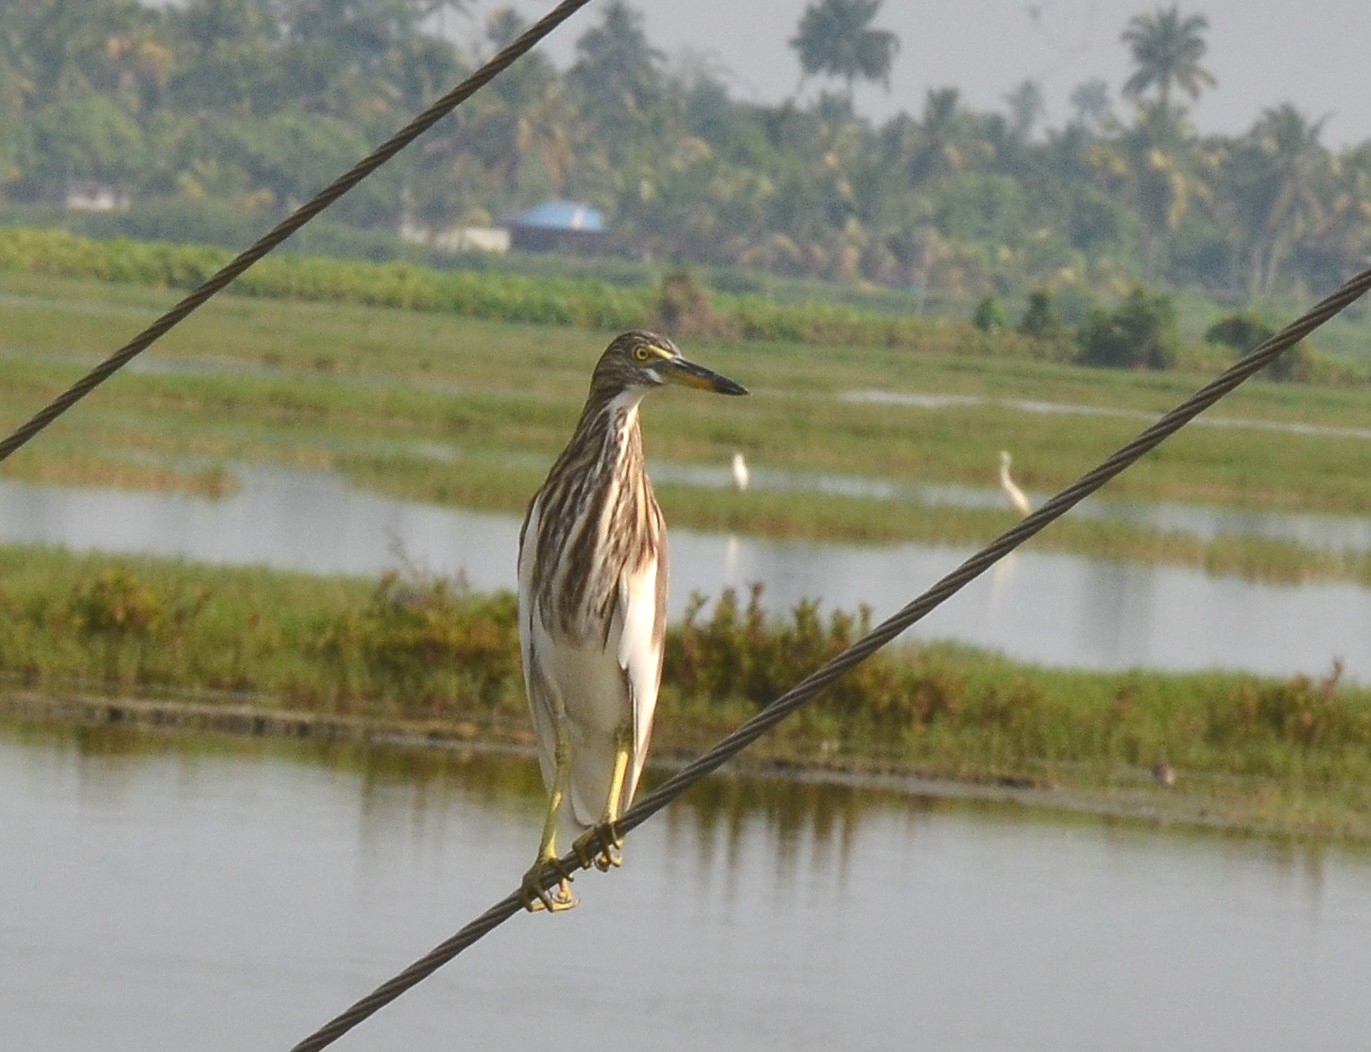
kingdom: Animalia
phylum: Chordata
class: Aves
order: Pelecaniformes
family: Ardeidae
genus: Ardeola
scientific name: Ardeola grayii
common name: Indian pond heron
